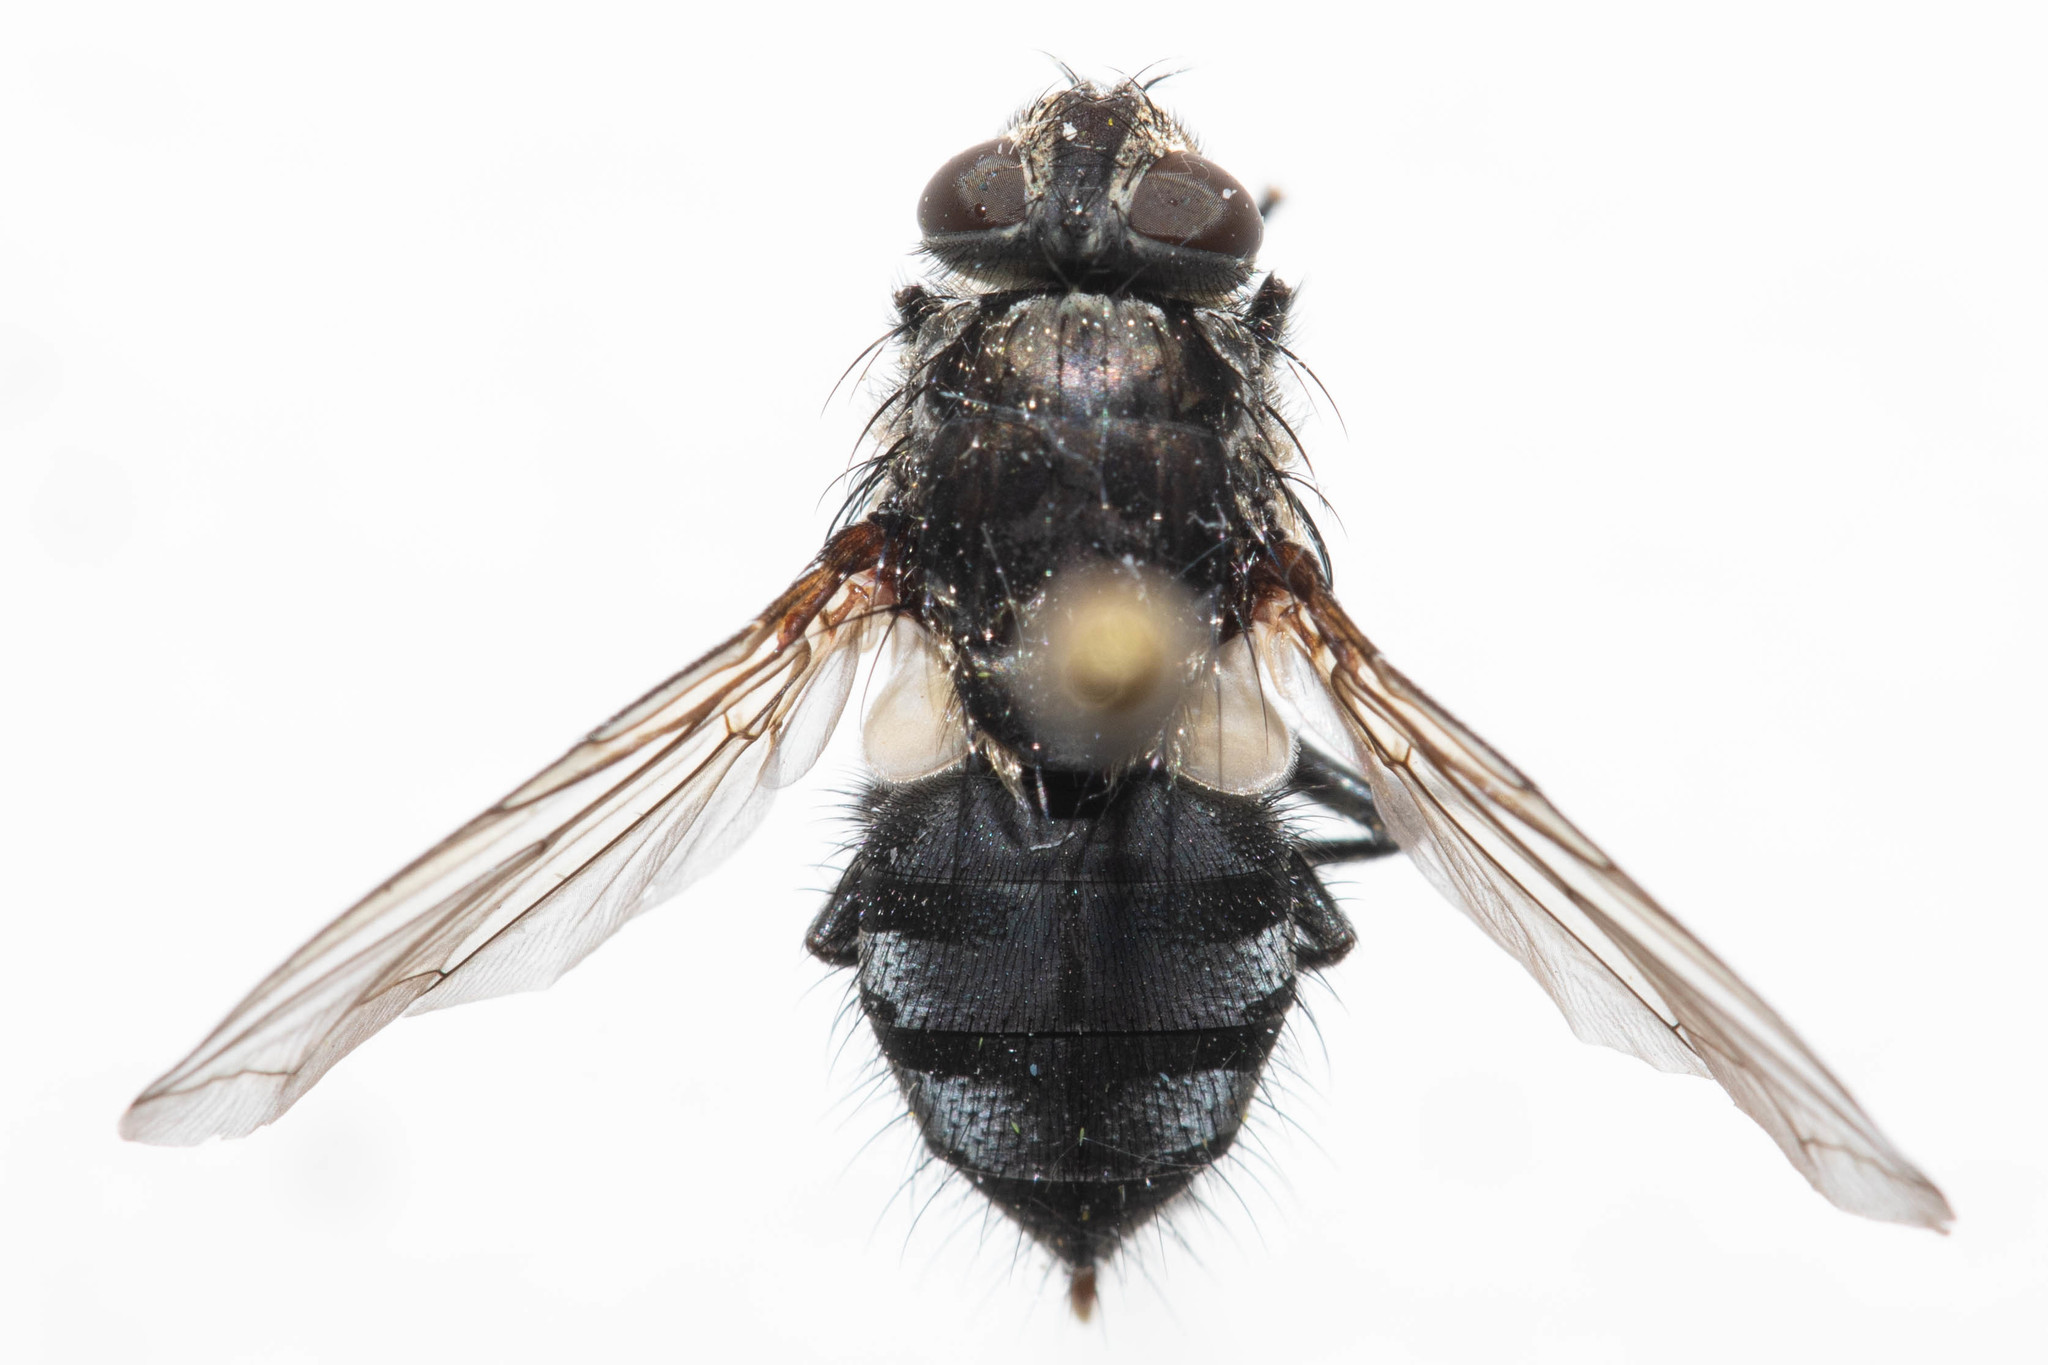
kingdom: Animalia
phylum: Arthropoda
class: Insecta
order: Diptera
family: Polleniidae
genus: Pollenia
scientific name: Pollenia vagabunda
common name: Vagabund cluster fly
